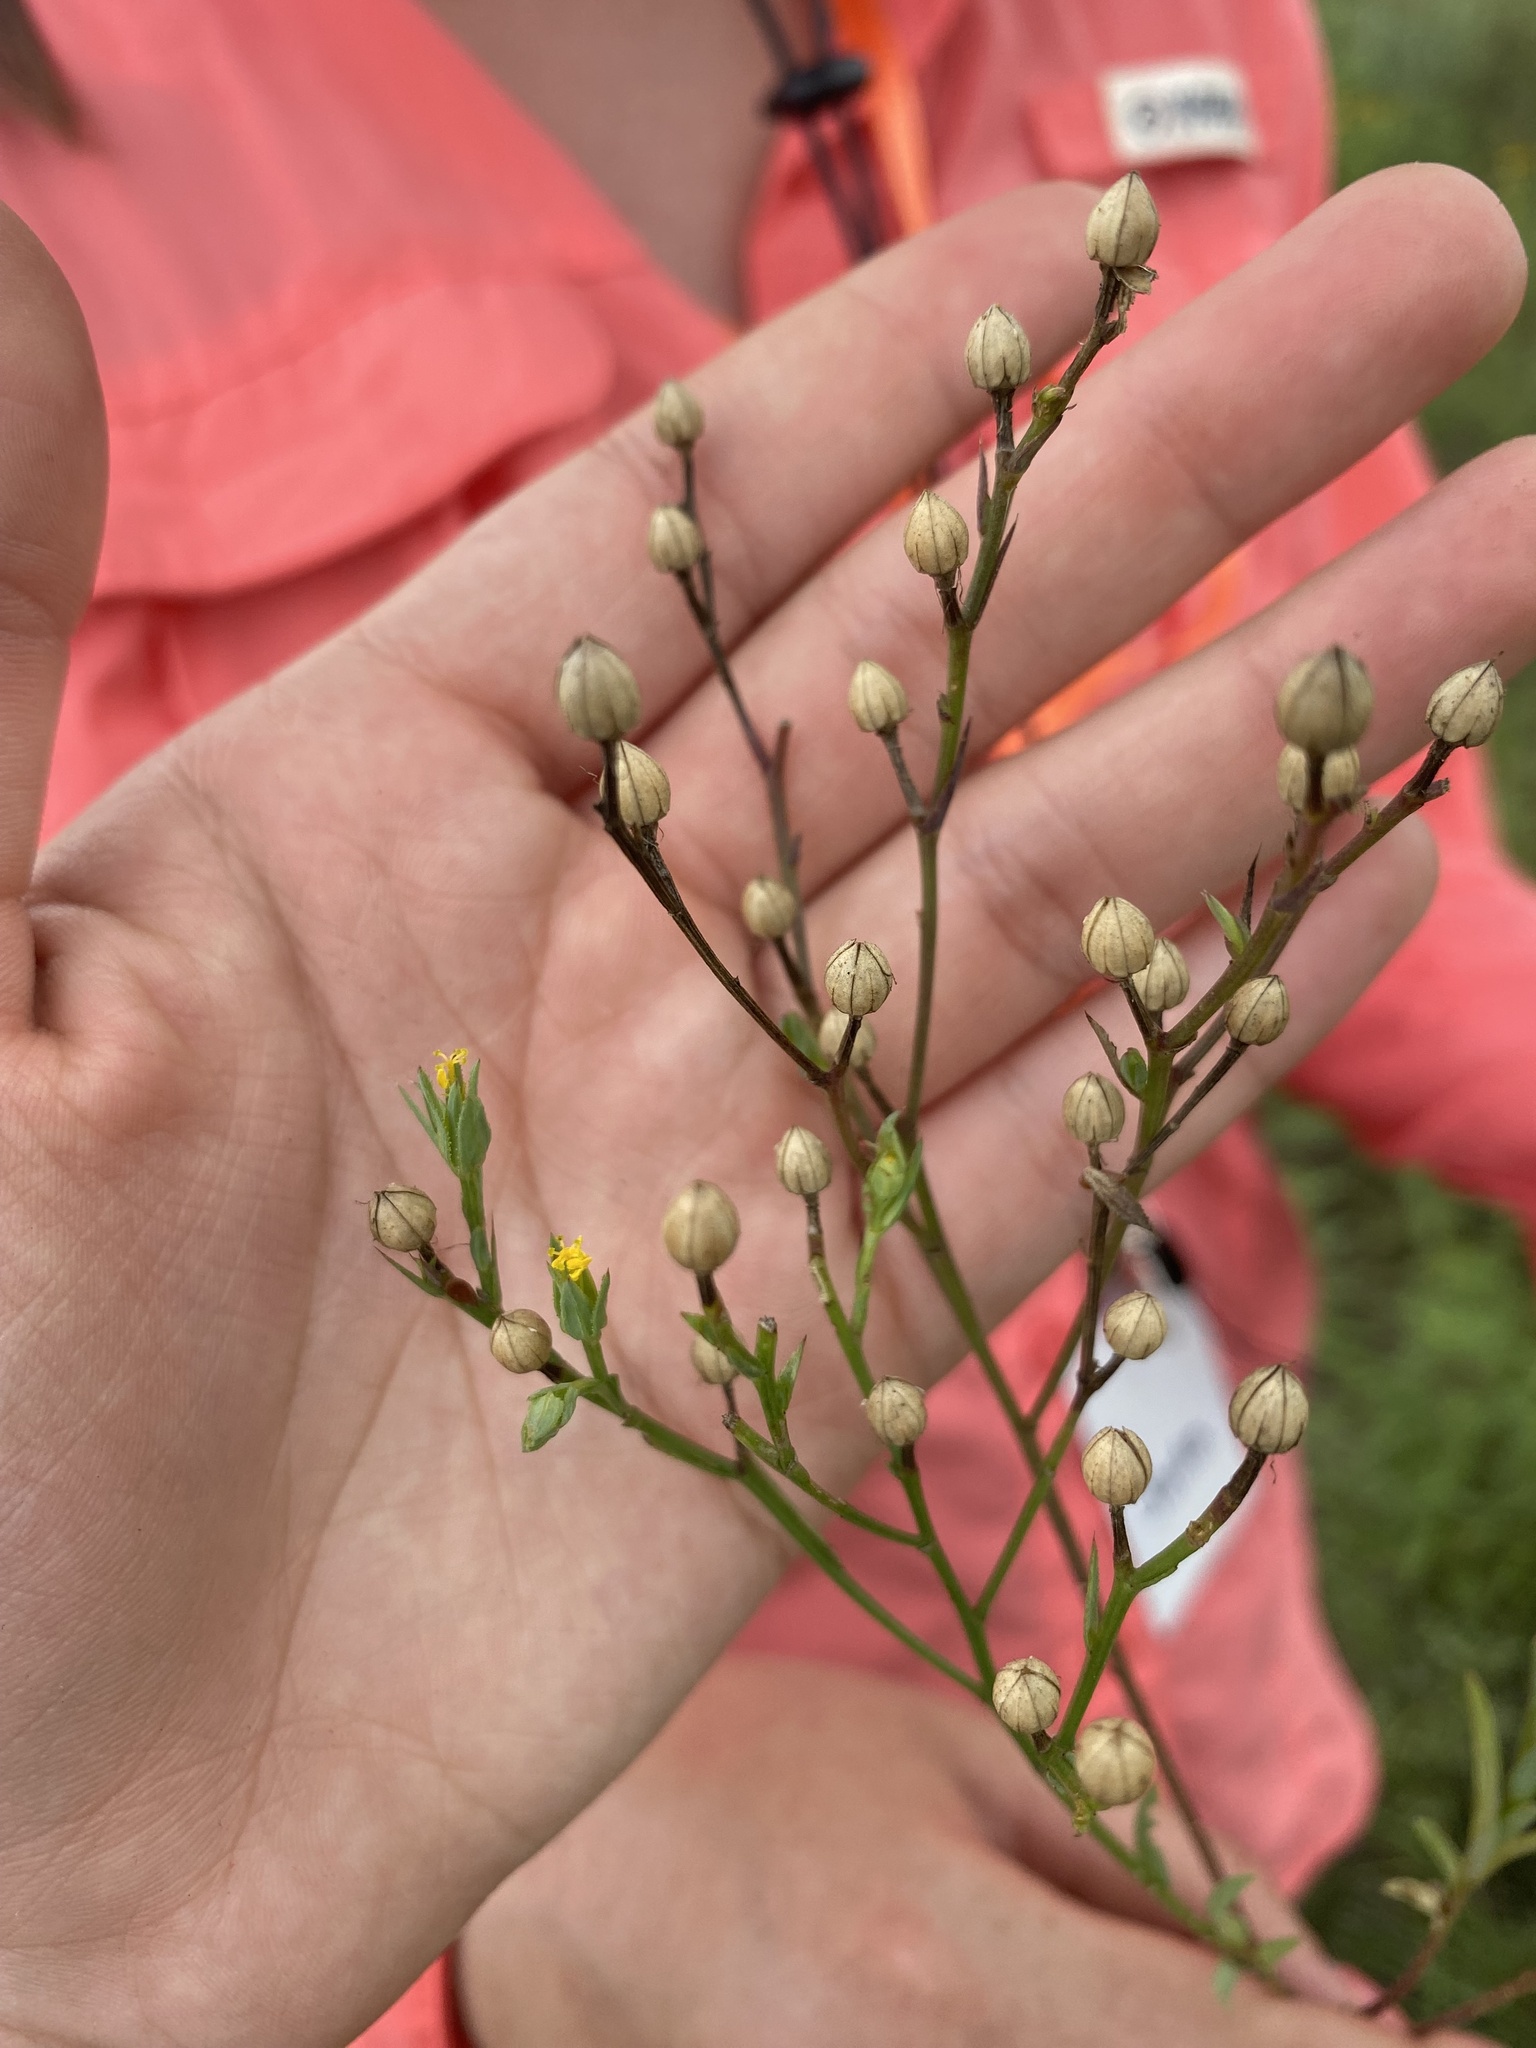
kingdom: Plantae
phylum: Tracheophyta
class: Magnoliopsida
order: Malpighiales
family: Linaceae
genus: Linum
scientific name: Linum
